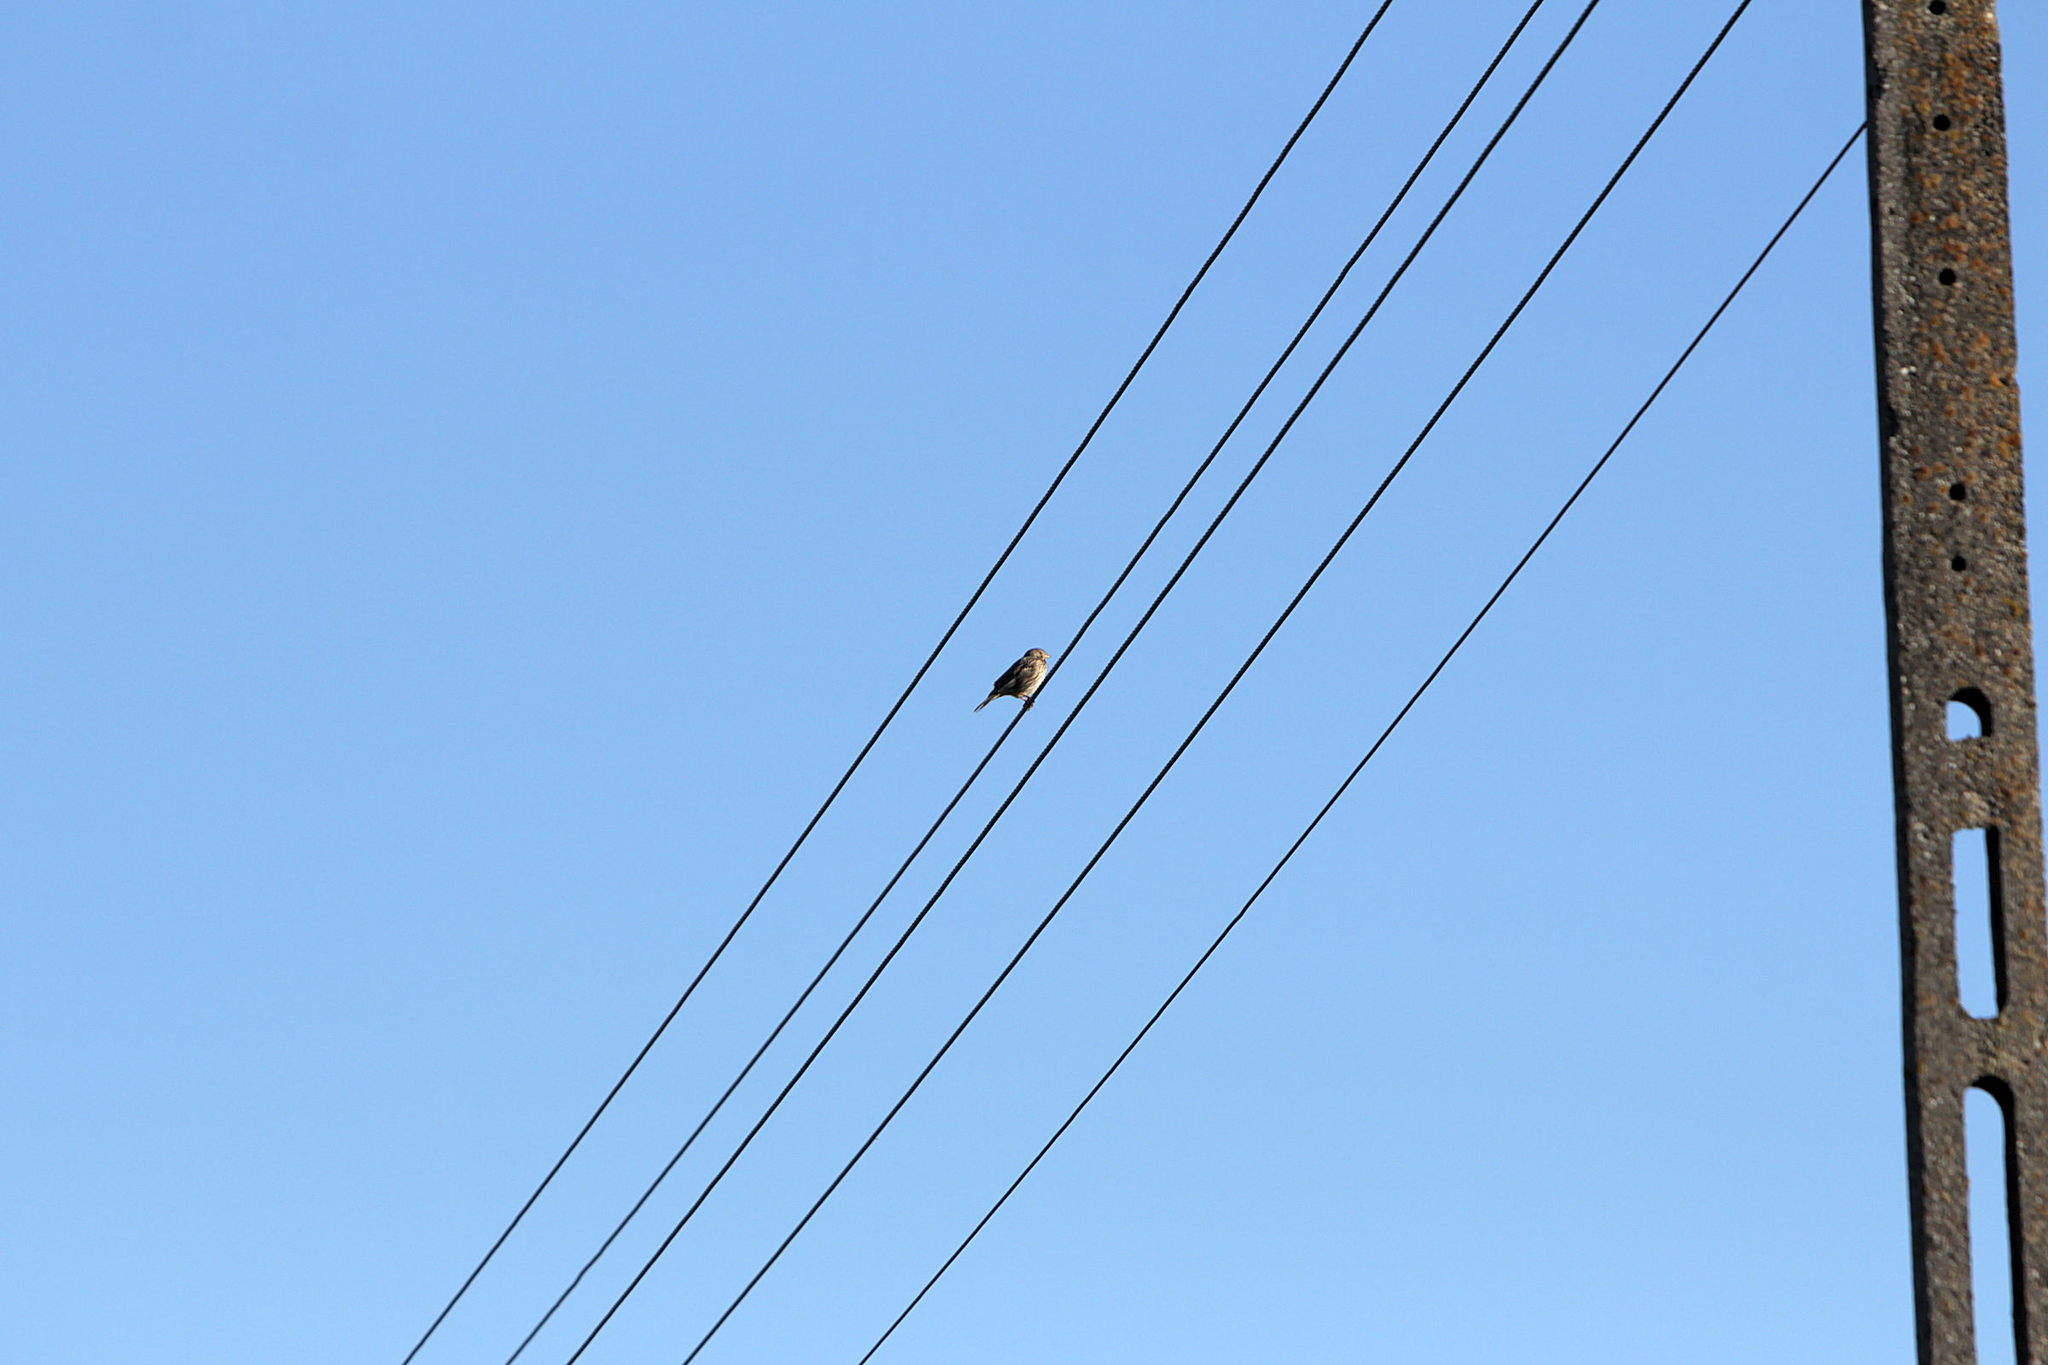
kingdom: Animalia
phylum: Chordata
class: Aves
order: Passeriformes
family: Emberizidae
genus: Emberiza
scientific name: Emberiza calandra
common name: Corn bunting
